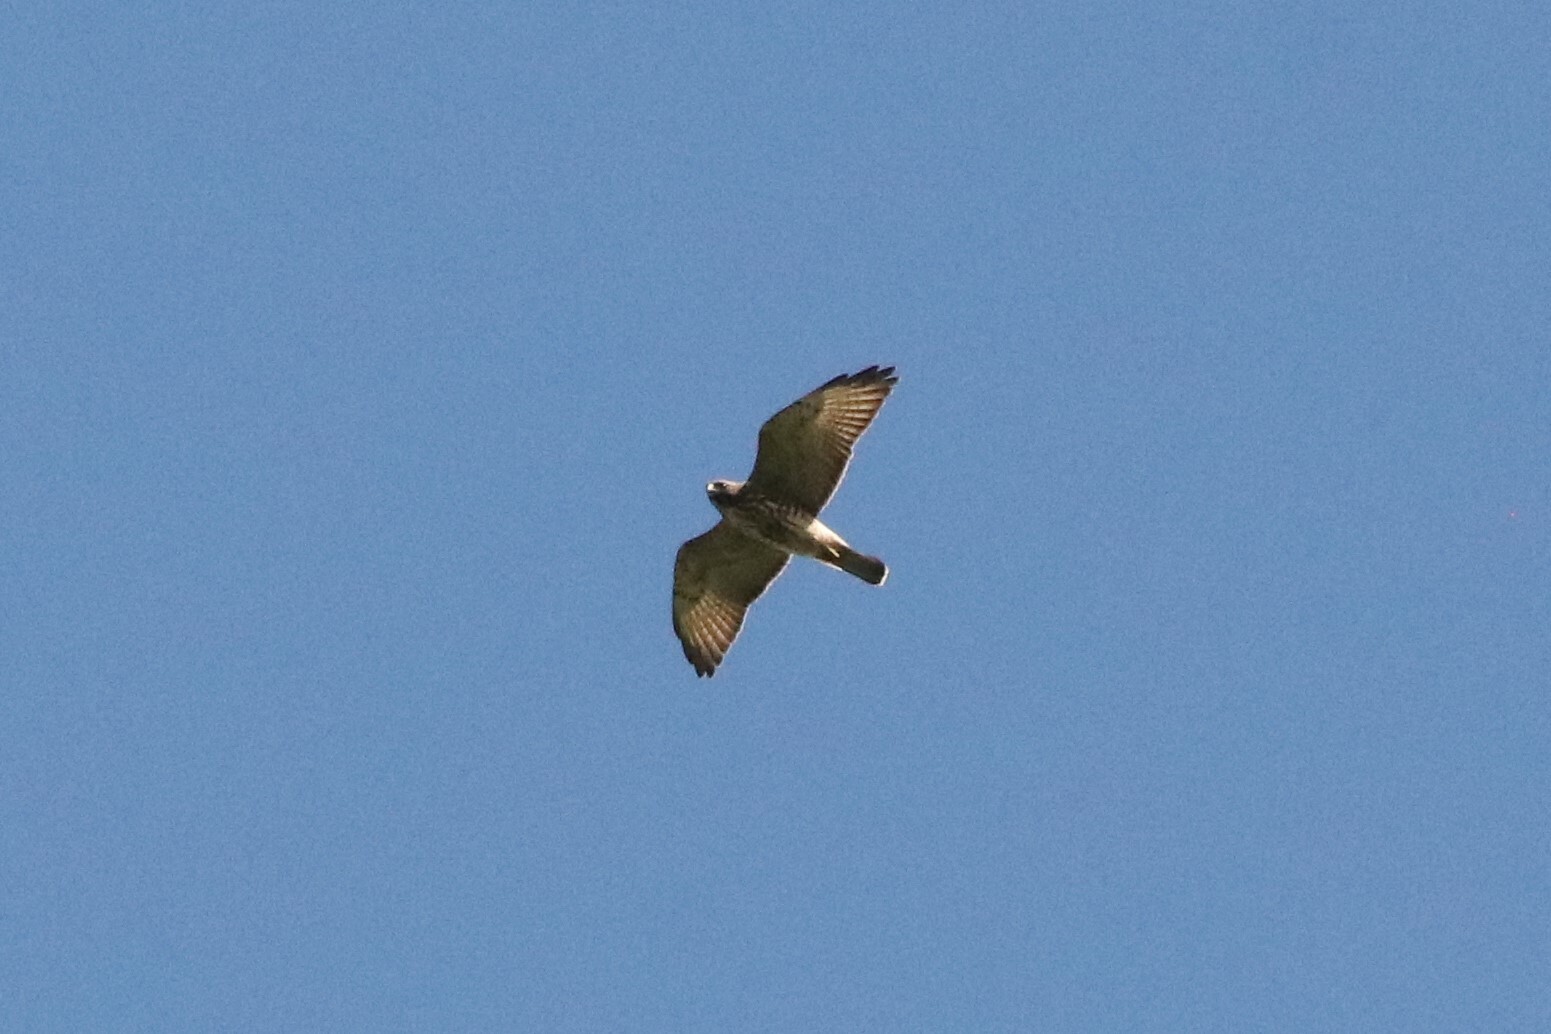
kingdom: Animalia
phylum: Chordata
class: Aves
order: Accipitriformes
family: Accipitridae
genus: Buteo
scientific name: Buteo platypterus
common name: Broad-winged hawk
